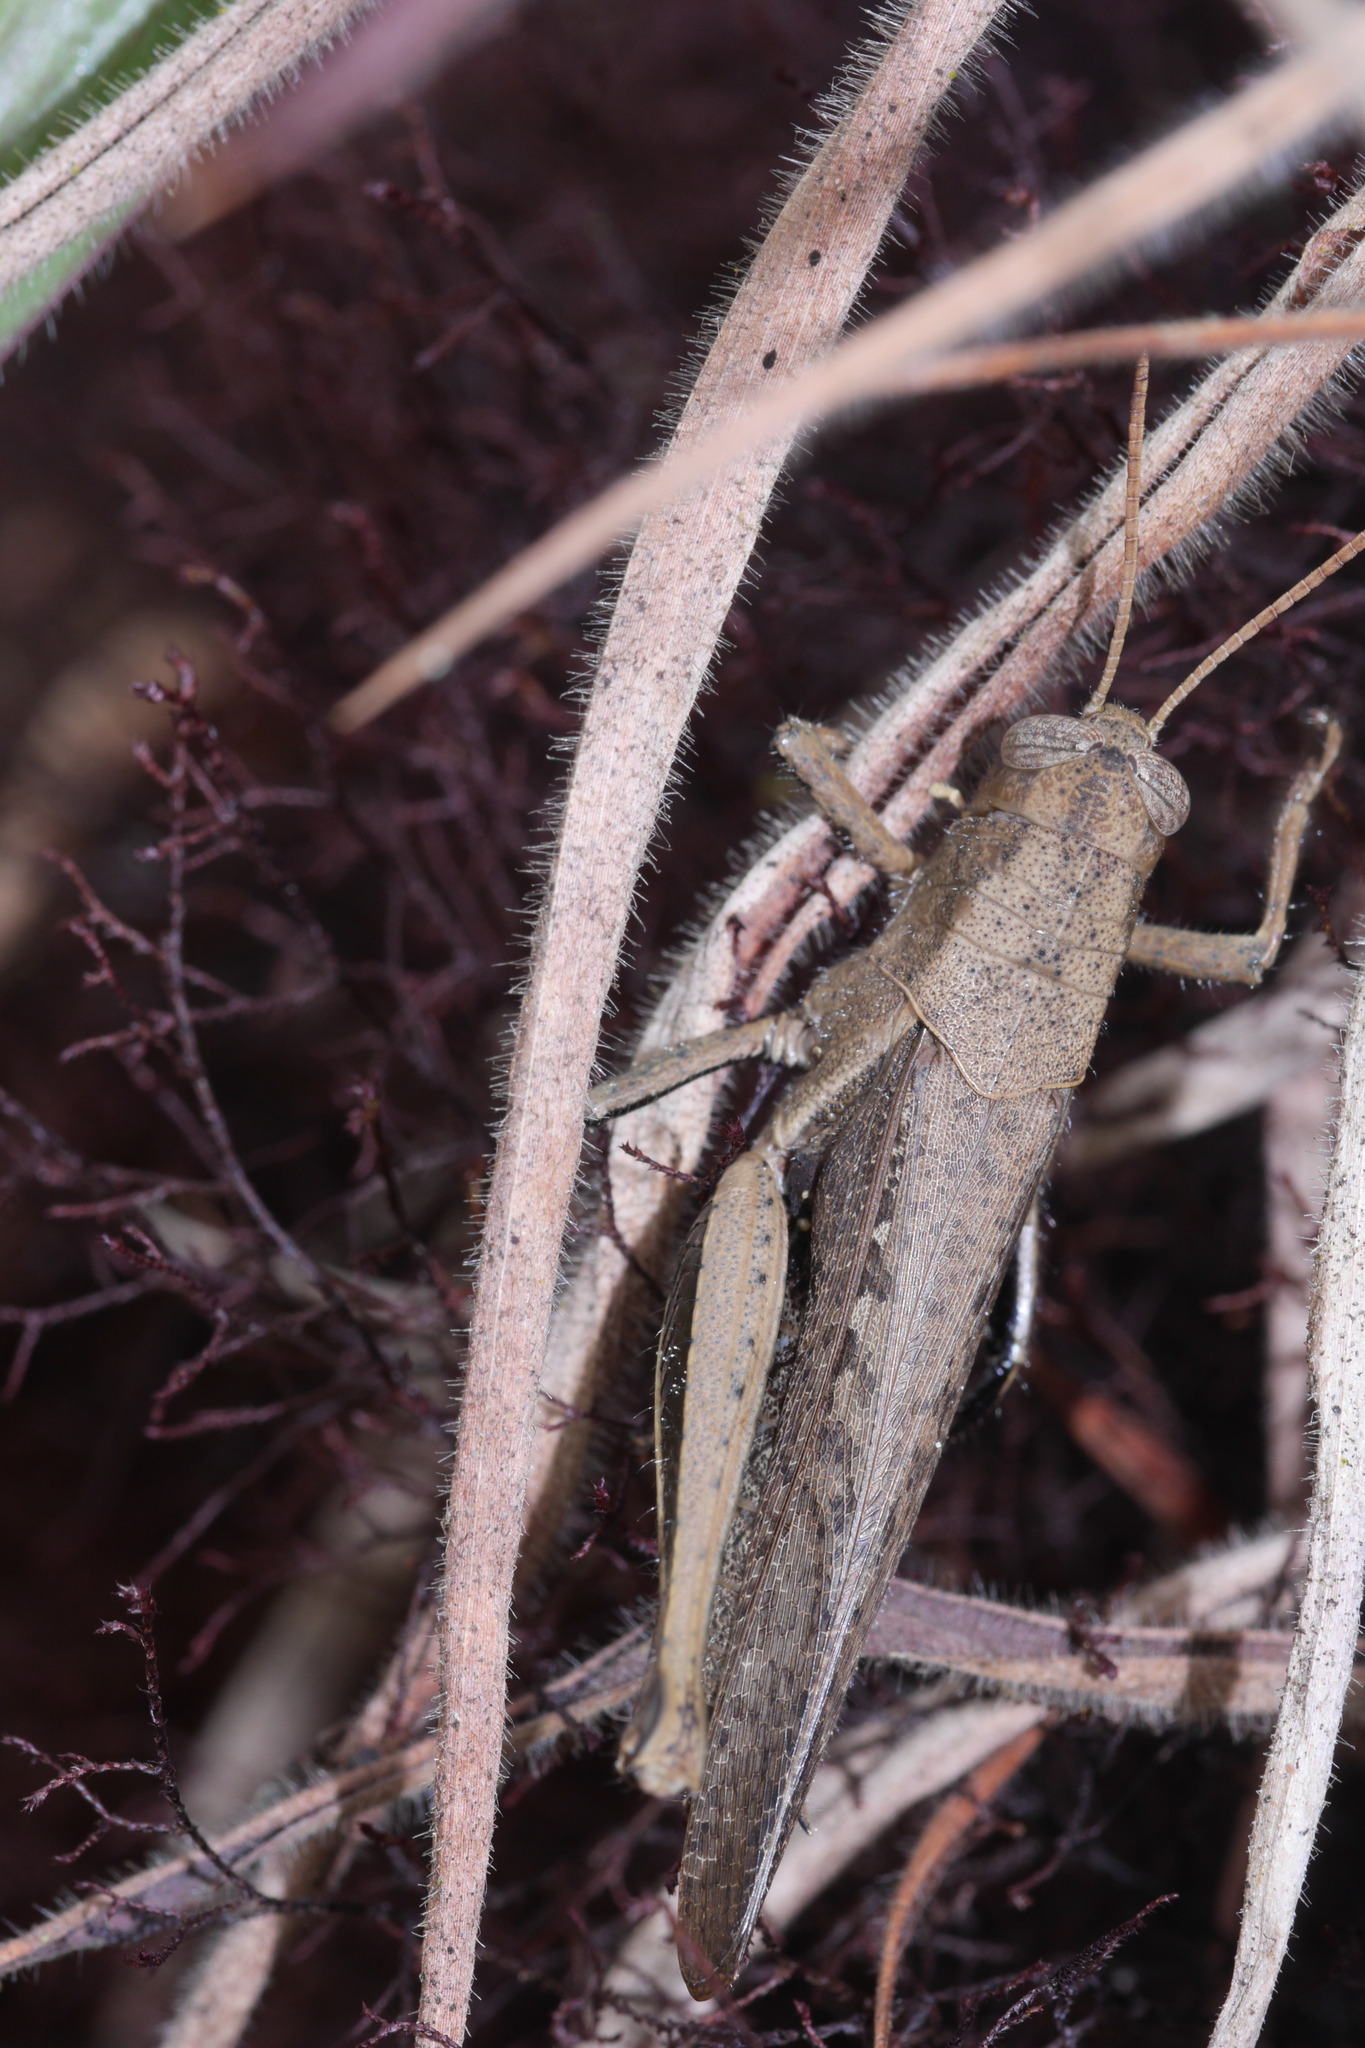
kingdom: Animalia
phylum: Arthropoda
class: Insecta
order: Orthoptera
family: Acrididae
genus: Abracris
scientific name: Abracris flavolineata
